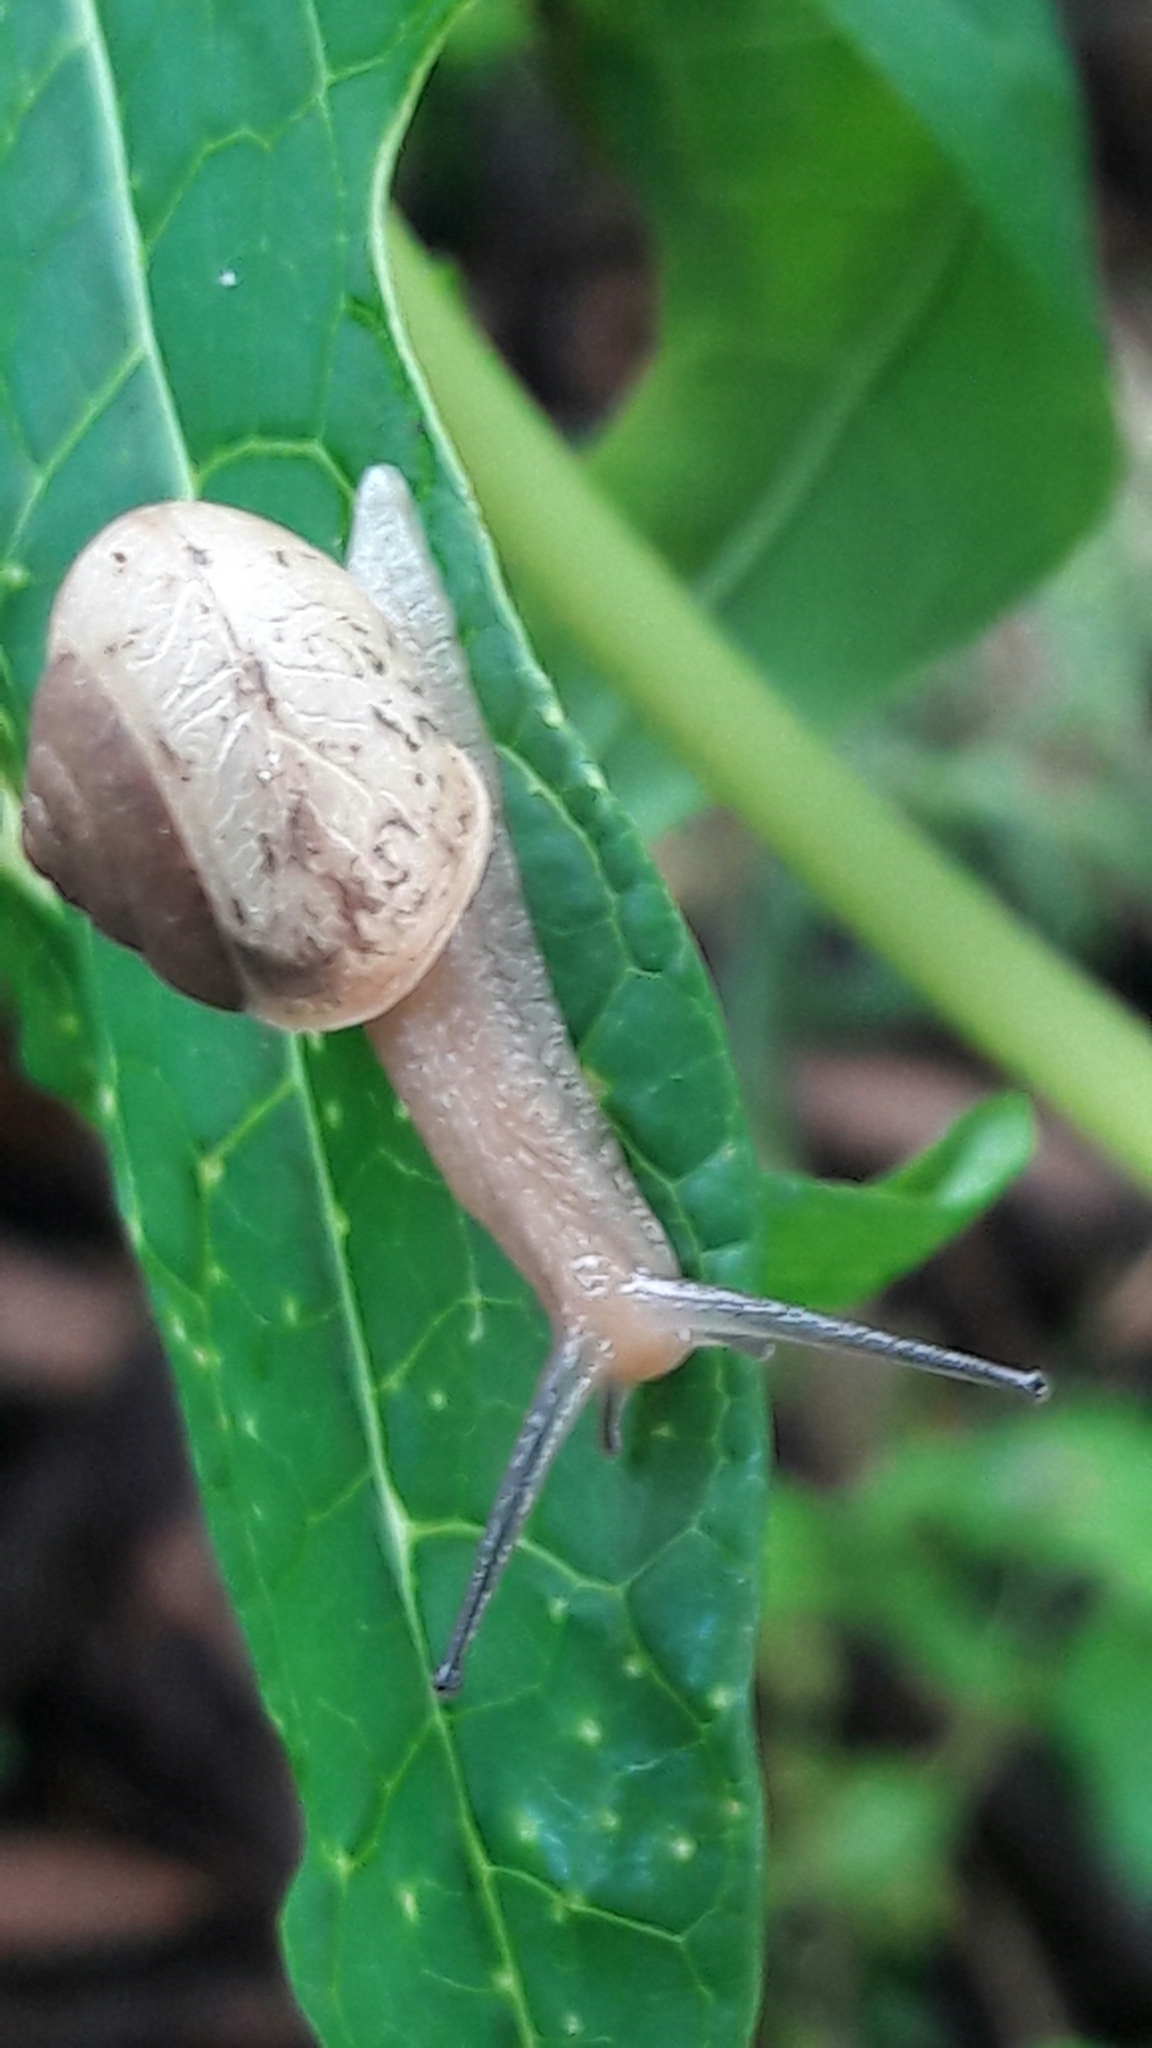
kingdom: Animalia
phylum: Mollusca
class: Gastropoda
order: Stylommatophora
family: Camaenidae
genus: Bradybaena
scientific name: Bradybaena similaris
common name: Asian trampsnail
